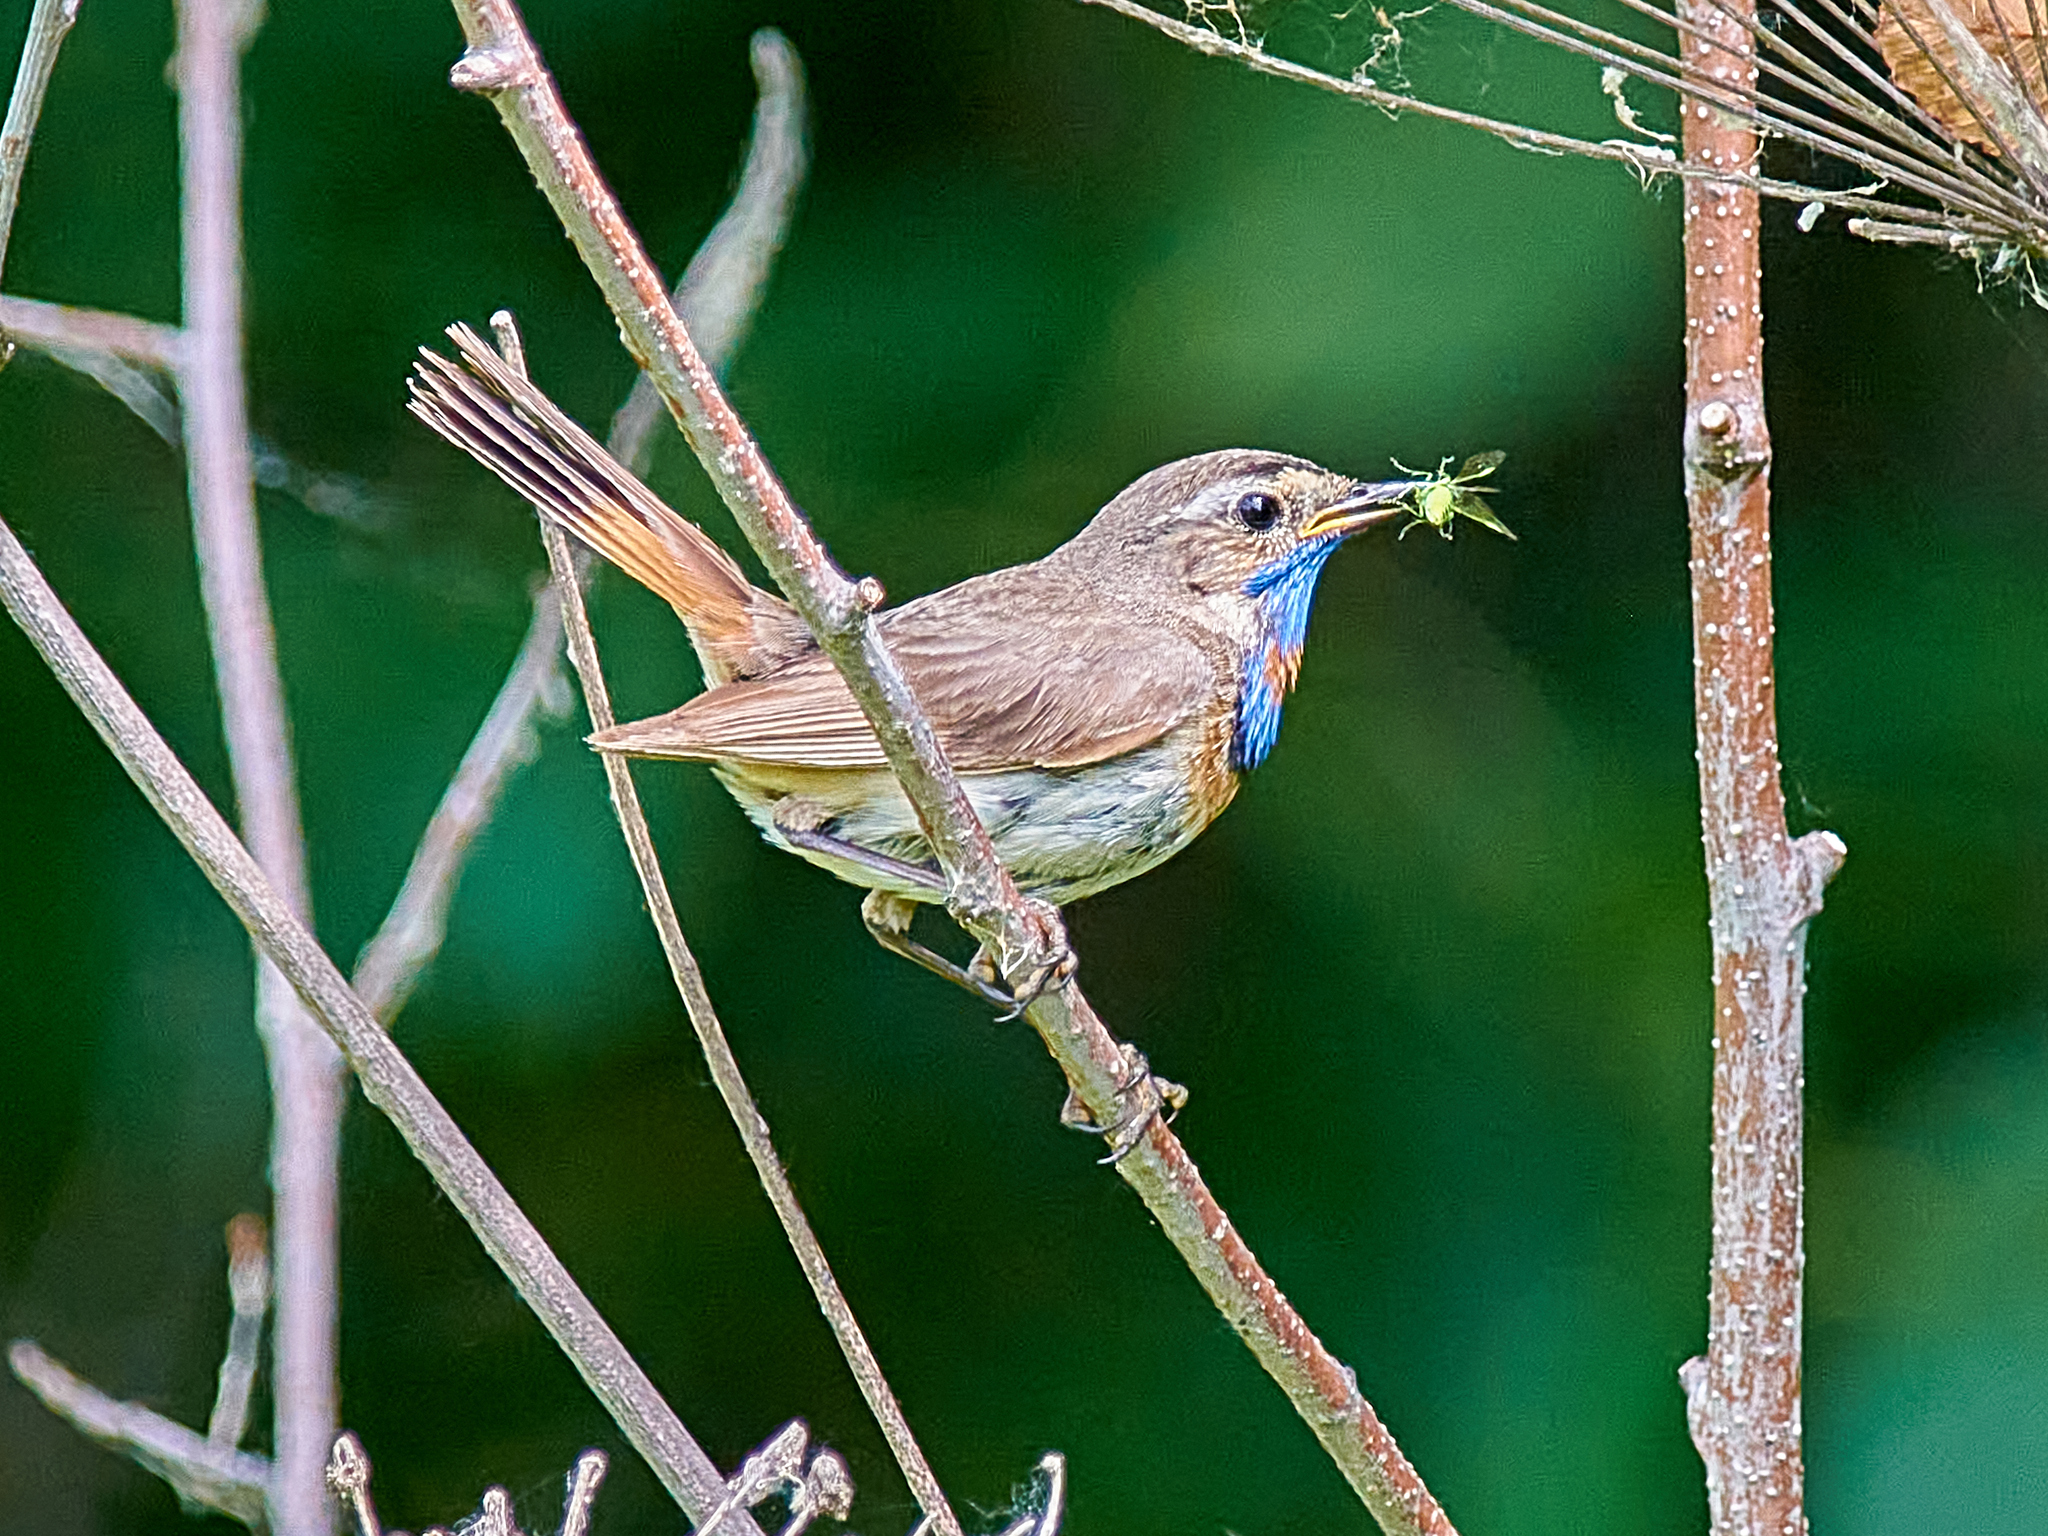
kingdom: Animalia
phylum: Chordata
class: Aves
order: Passeriformes
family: Muscicapidae
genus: Luscinia
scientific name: Luscinia svecica
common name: Bluethroat
